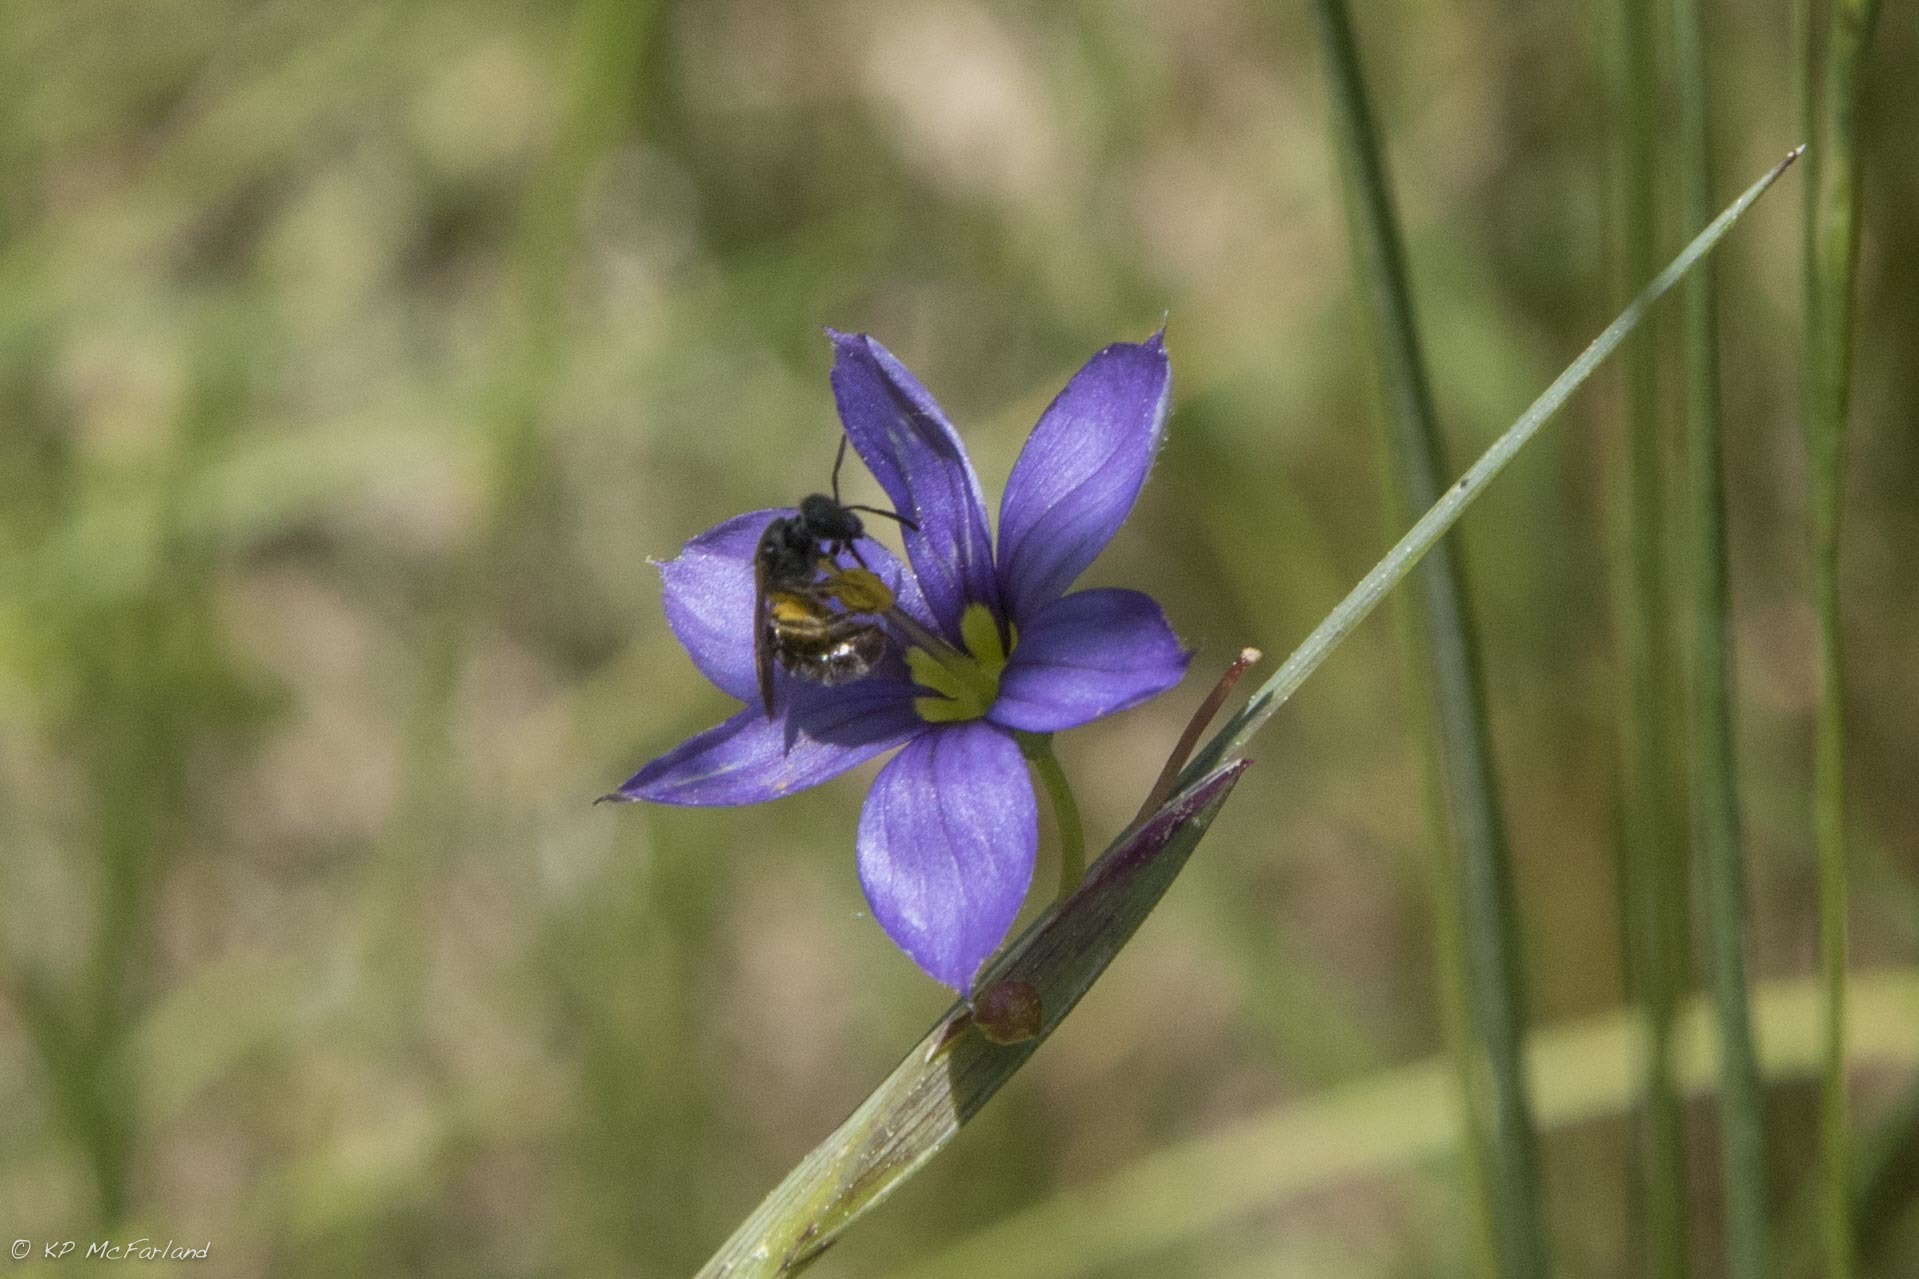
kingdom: Plantae
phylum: Tracheophyta
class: Liliopsida
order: Asparagales
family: Iridaceae
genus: Sisyrinchium
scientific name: Sisyrinchium
